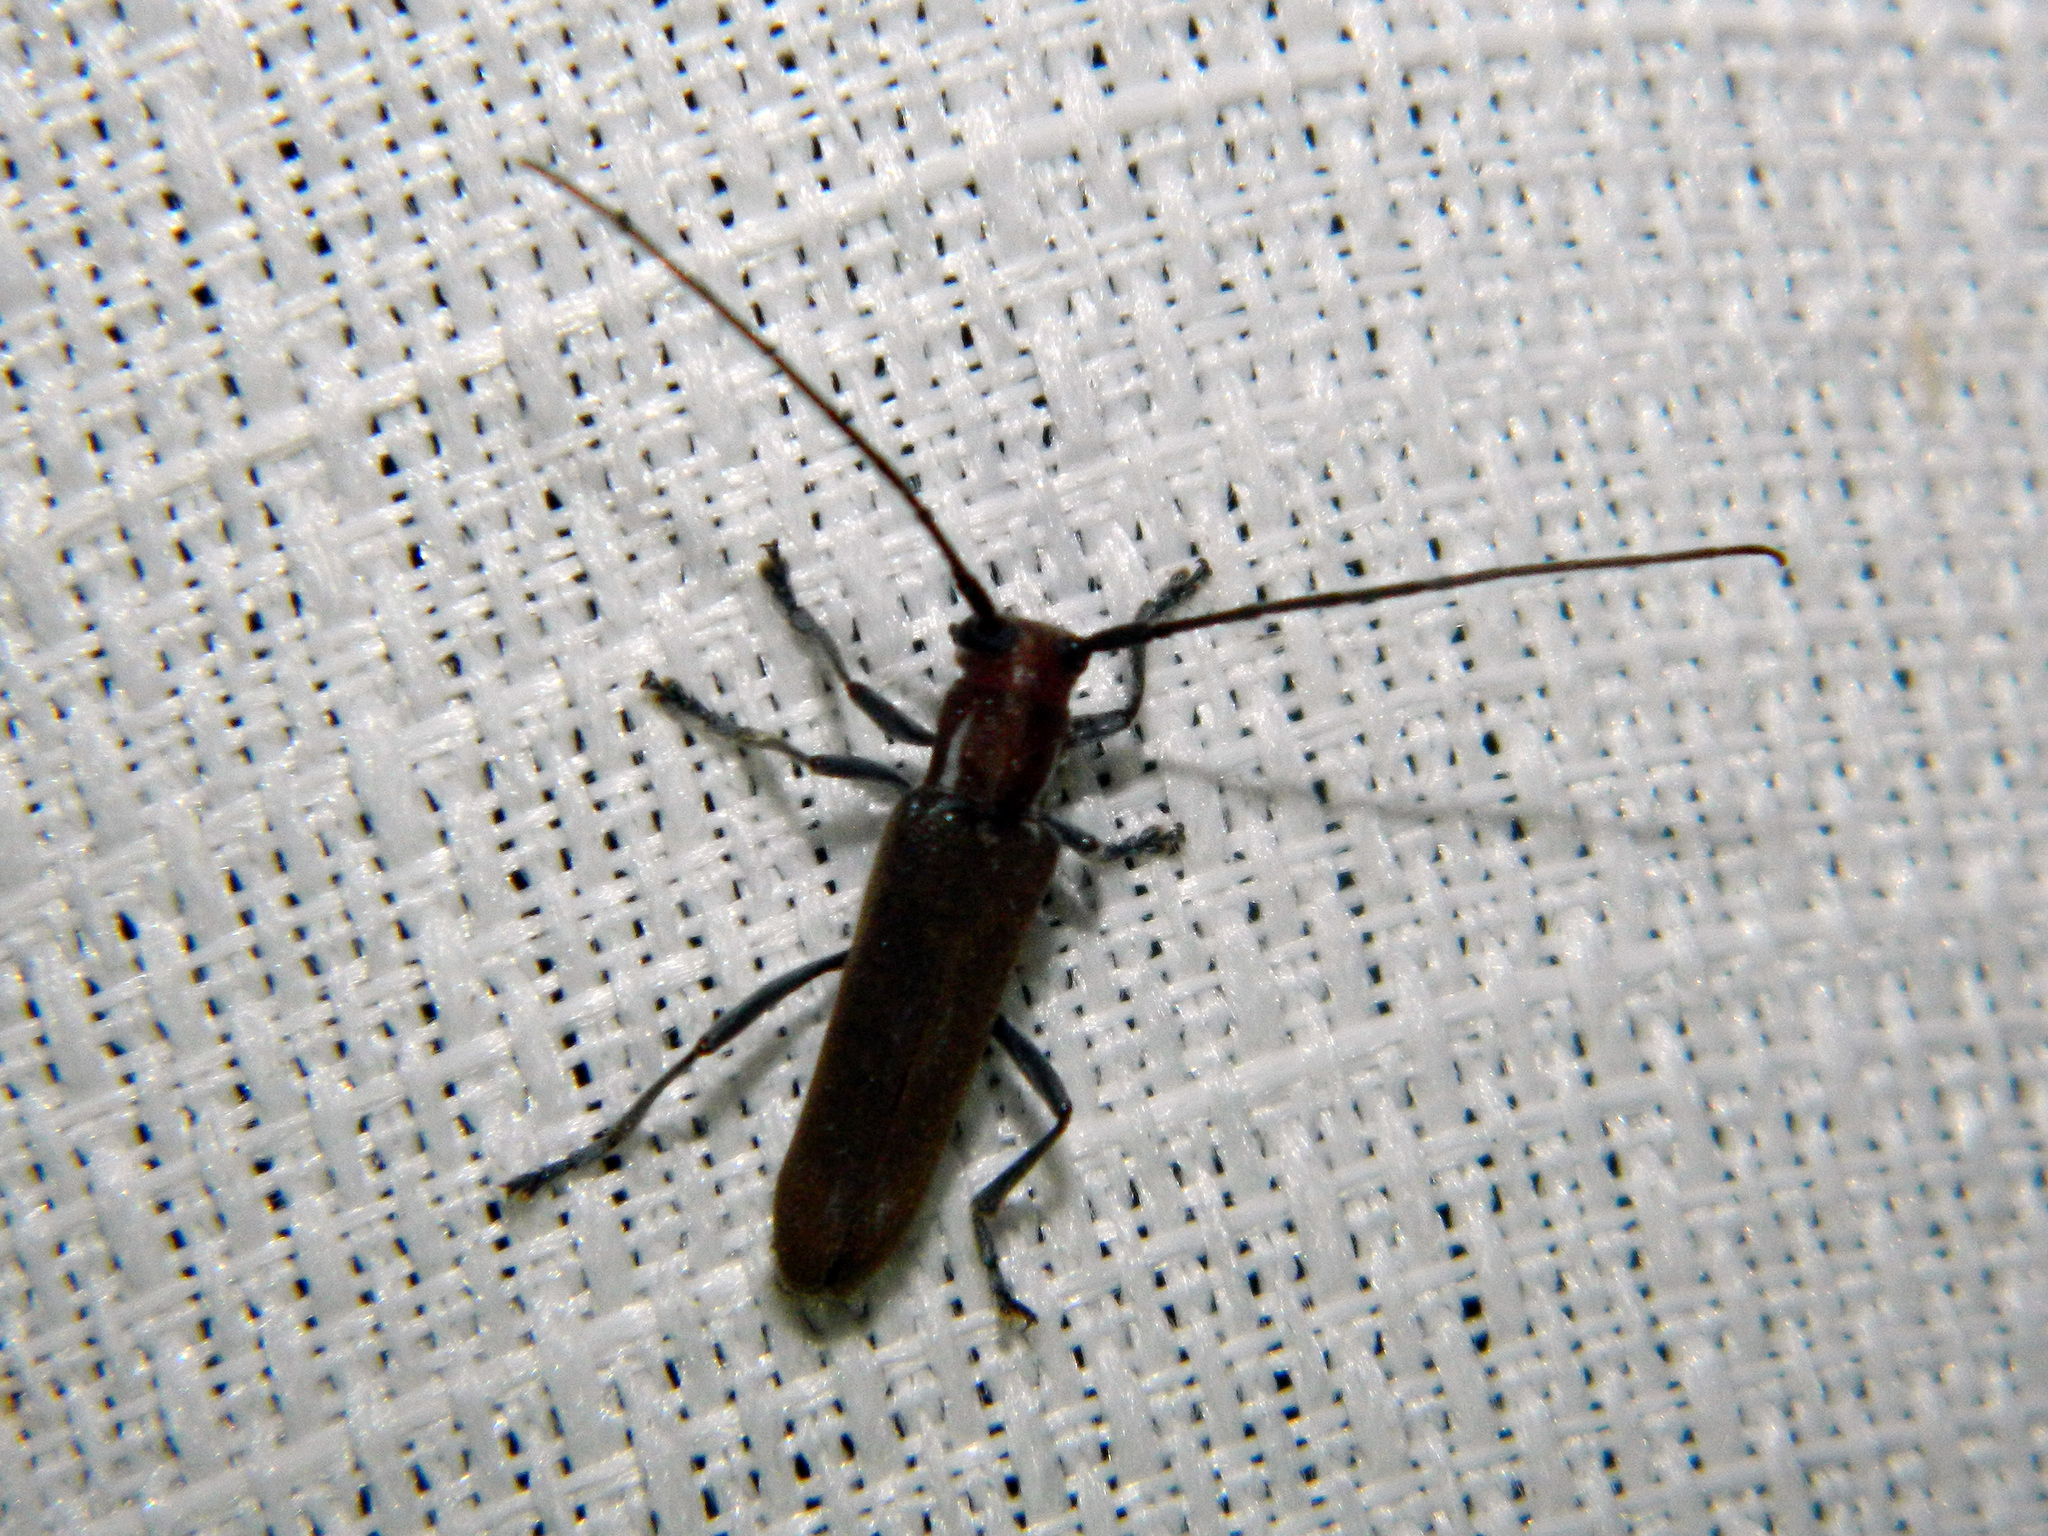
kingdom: Animalia
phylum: Arthropoda
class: Insecta
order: Coleoptera
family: Cerambycidae
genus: Saperda
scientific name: Saperda fayi
